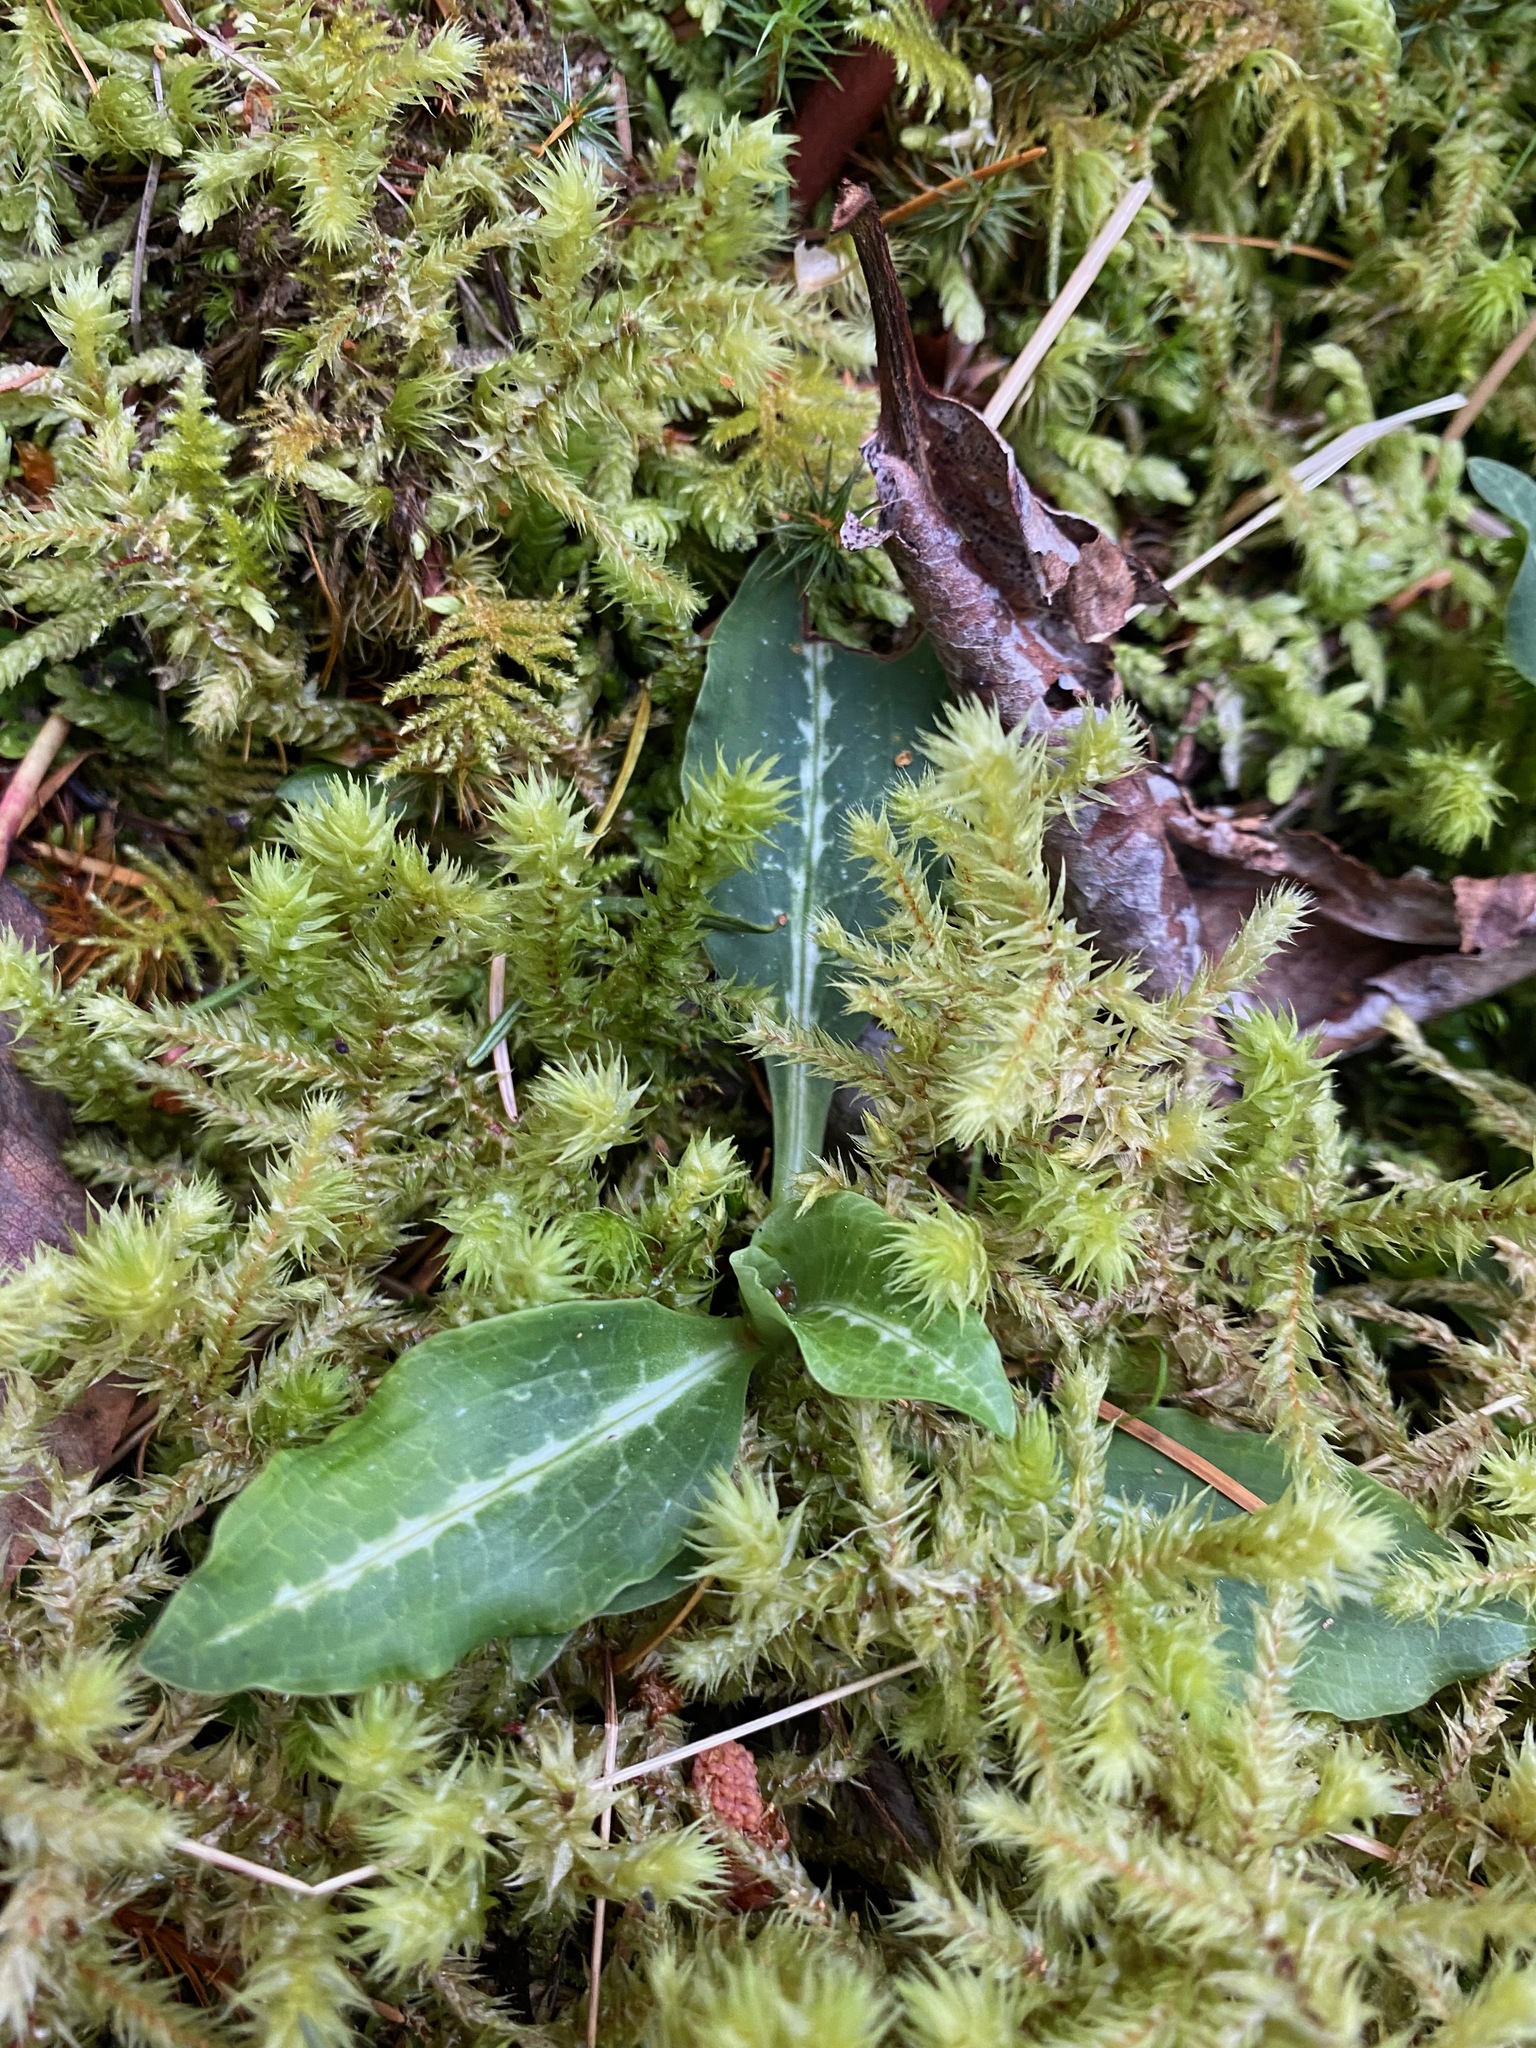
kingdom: Plantae
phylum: Tracheophyta
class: Liliopsida
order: Asparagales
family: Orchidaceae
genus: Goodyera
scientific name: Goodyera oblongifolia
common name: Giant rattlesnake-plantain
